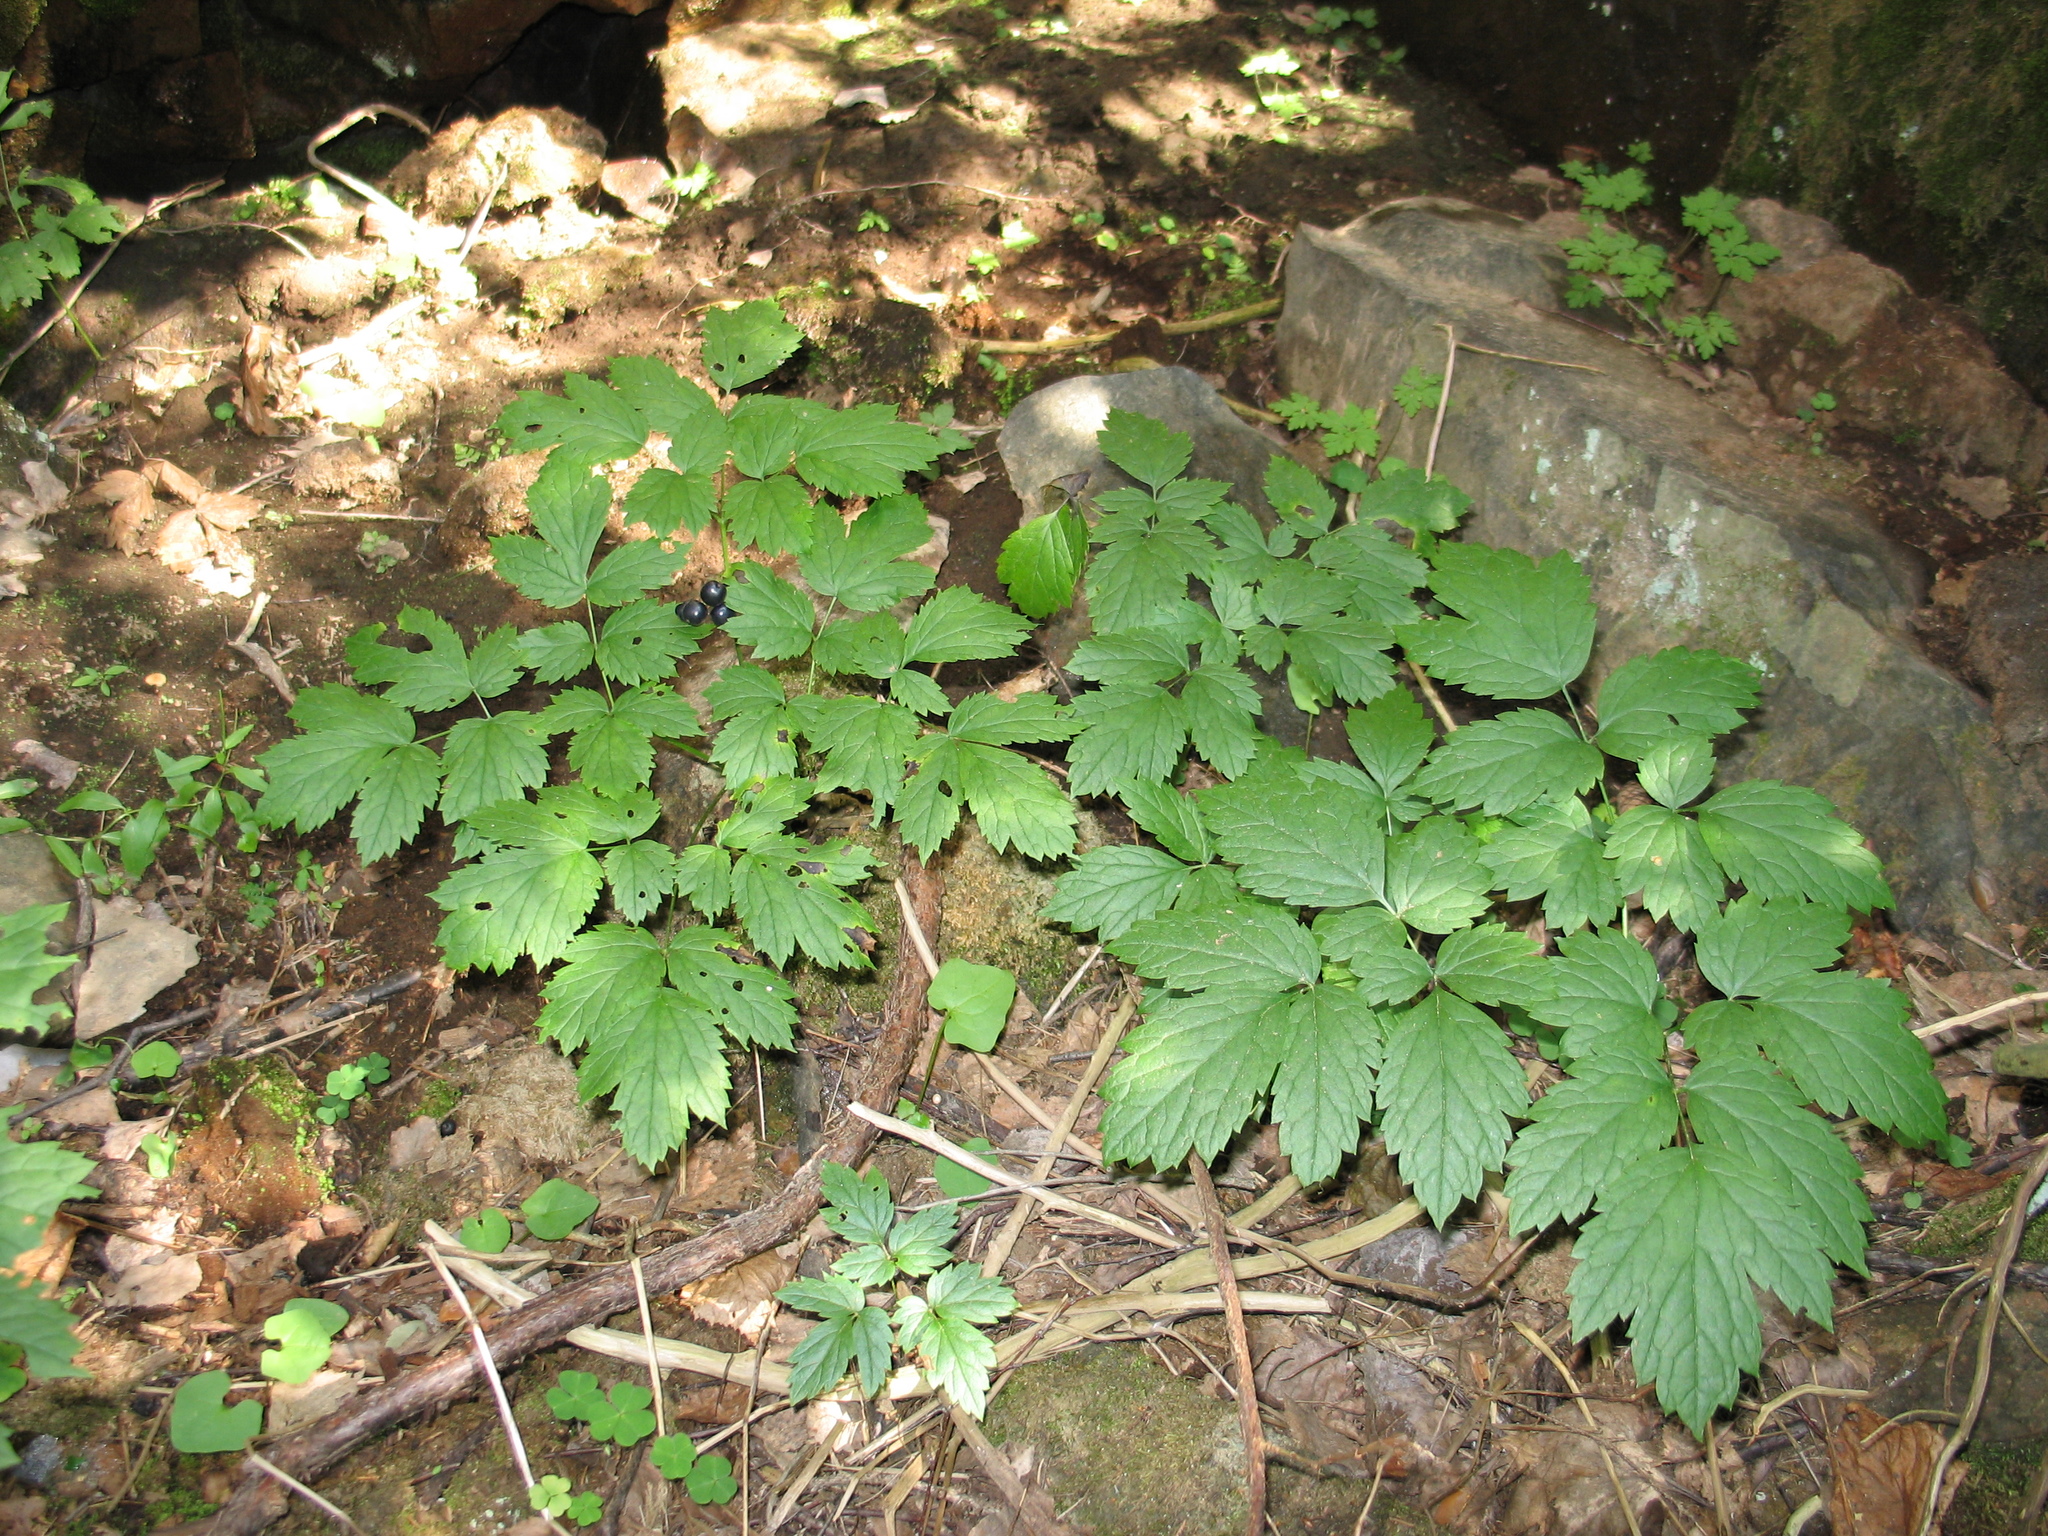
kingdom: Plantae
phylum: Tracheophyta
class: Magnoliopsida
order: Ranunculales
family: Ranunculaceae
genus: Actaea
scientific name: Actaea spicata
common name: Baneberry
